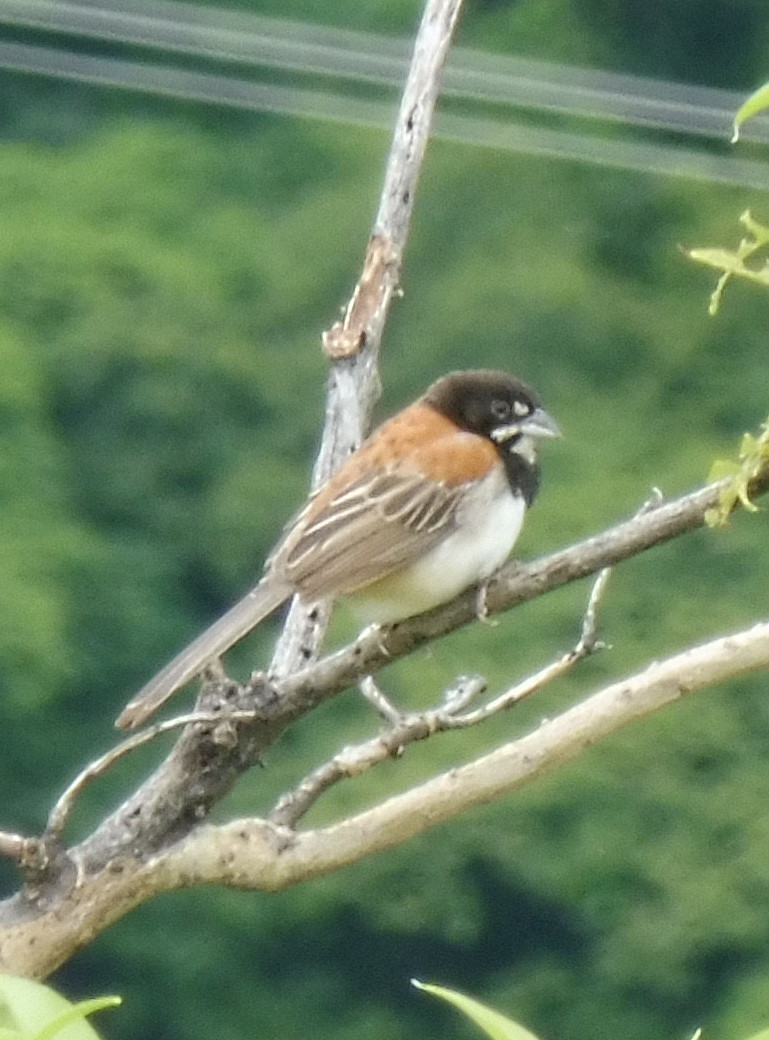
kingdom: Animalia
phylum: Chordata
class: Aves
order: Passeriformes
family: Passerellidae
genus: Peucaea
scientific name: Peucaea humeralis
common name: Black-chested sparrow
